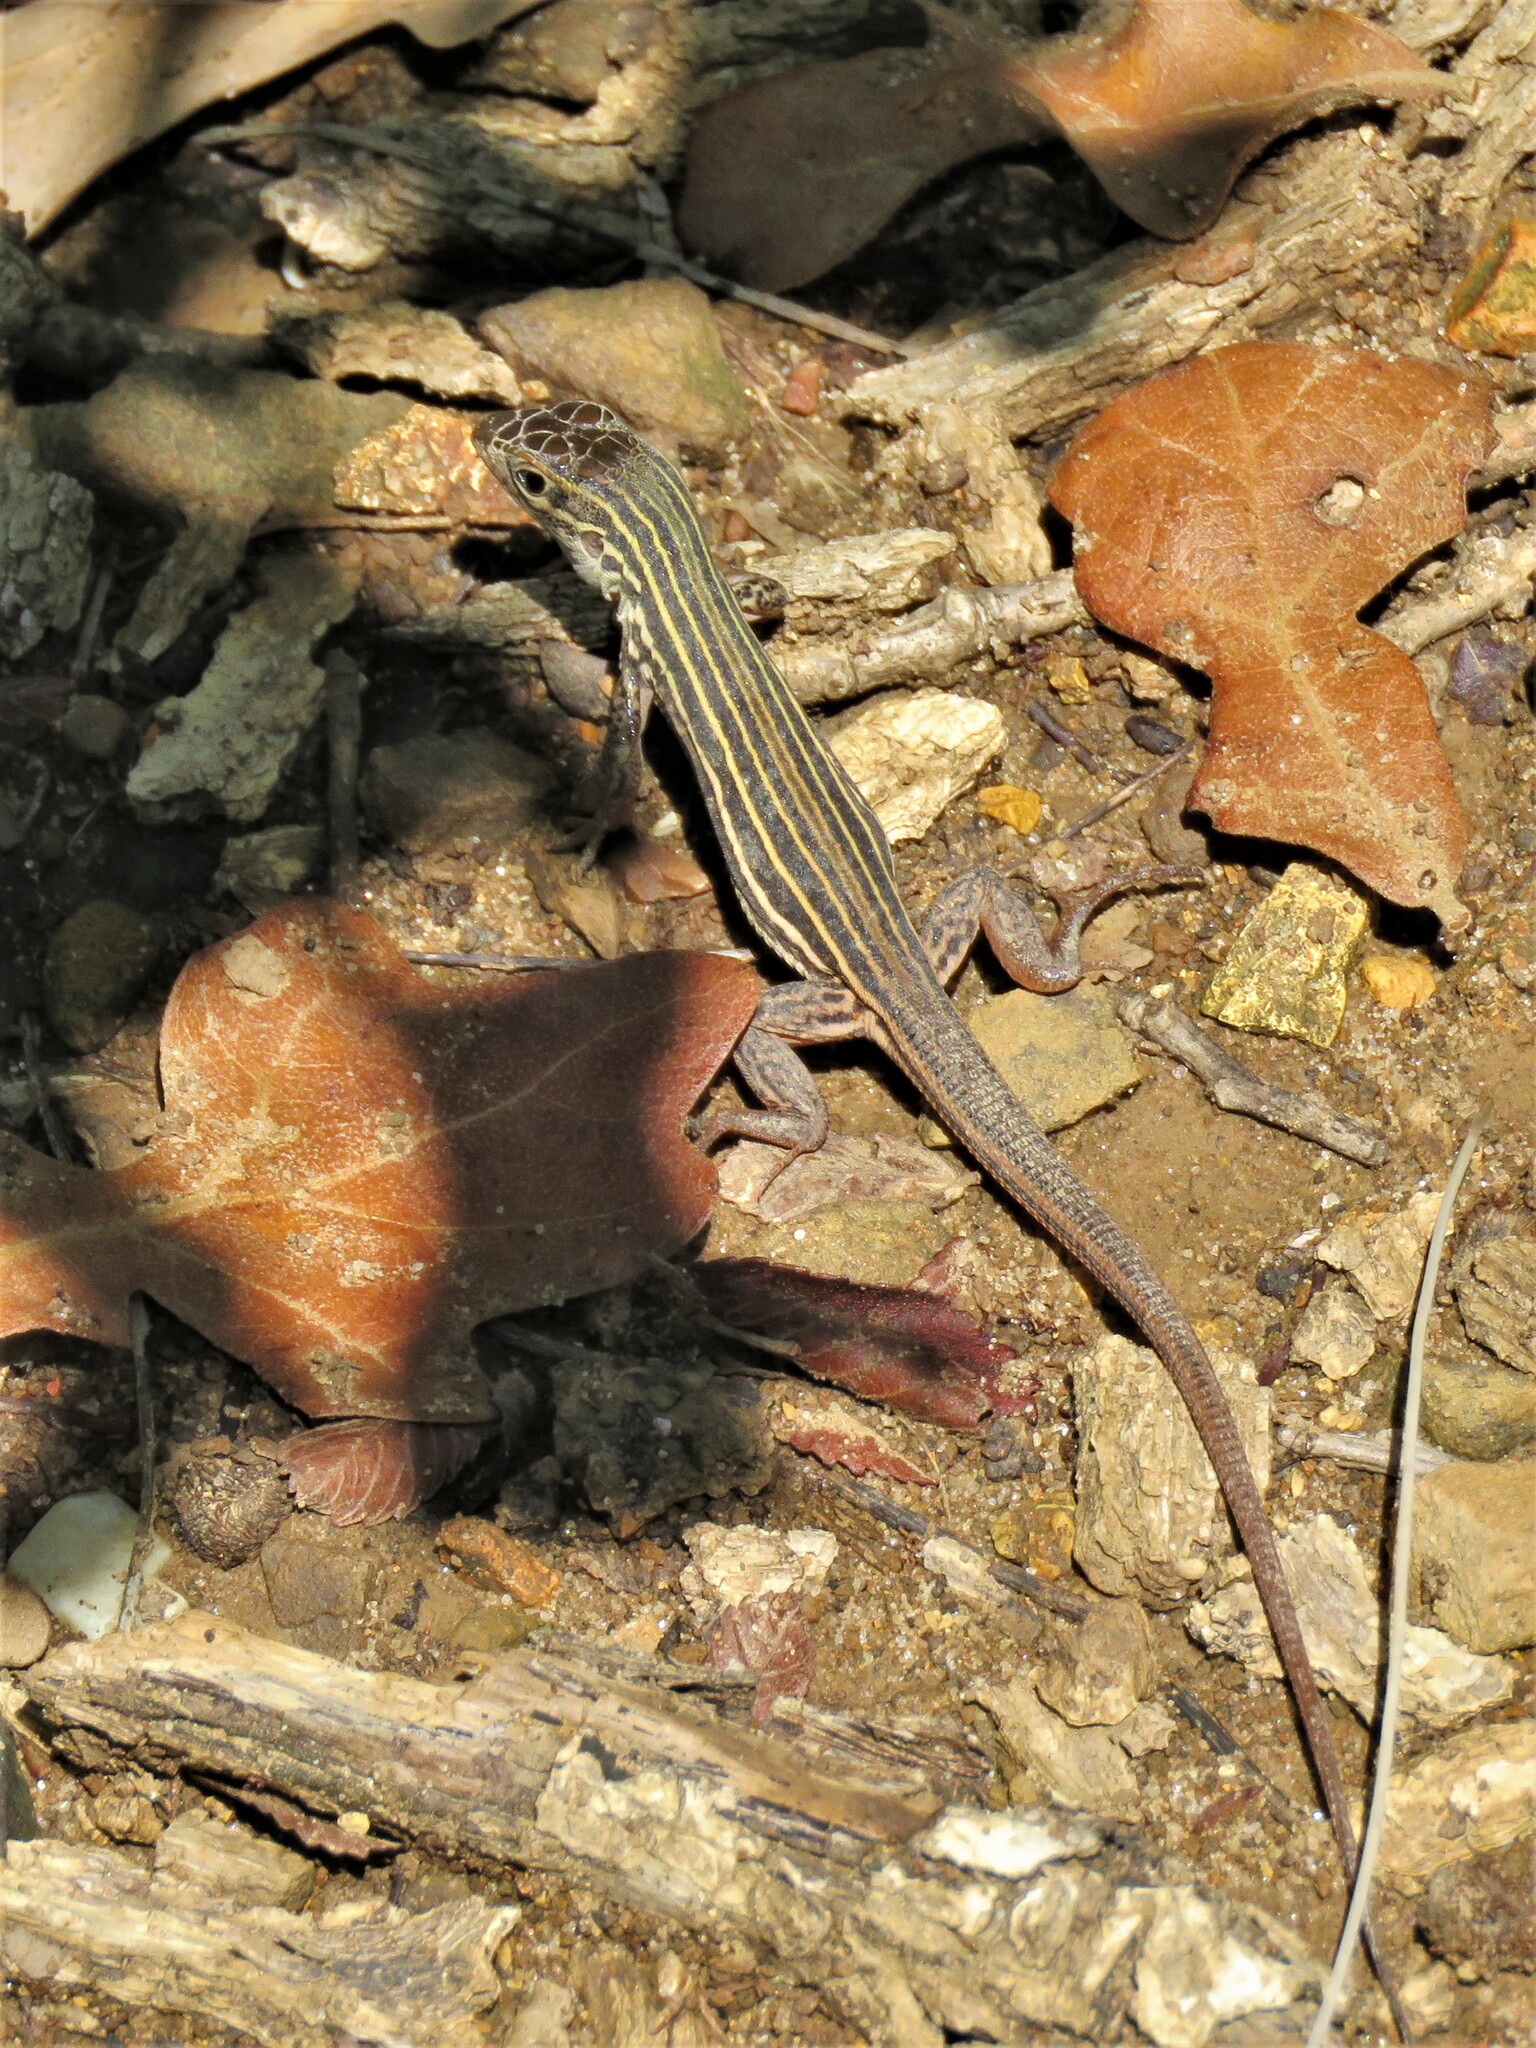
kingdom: Animalia
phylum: Chordata
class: Squamata
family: Teiidae
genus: Aspidoscelis
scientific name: Aspidoscelis gularis
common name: Eastern spotted whiptail
